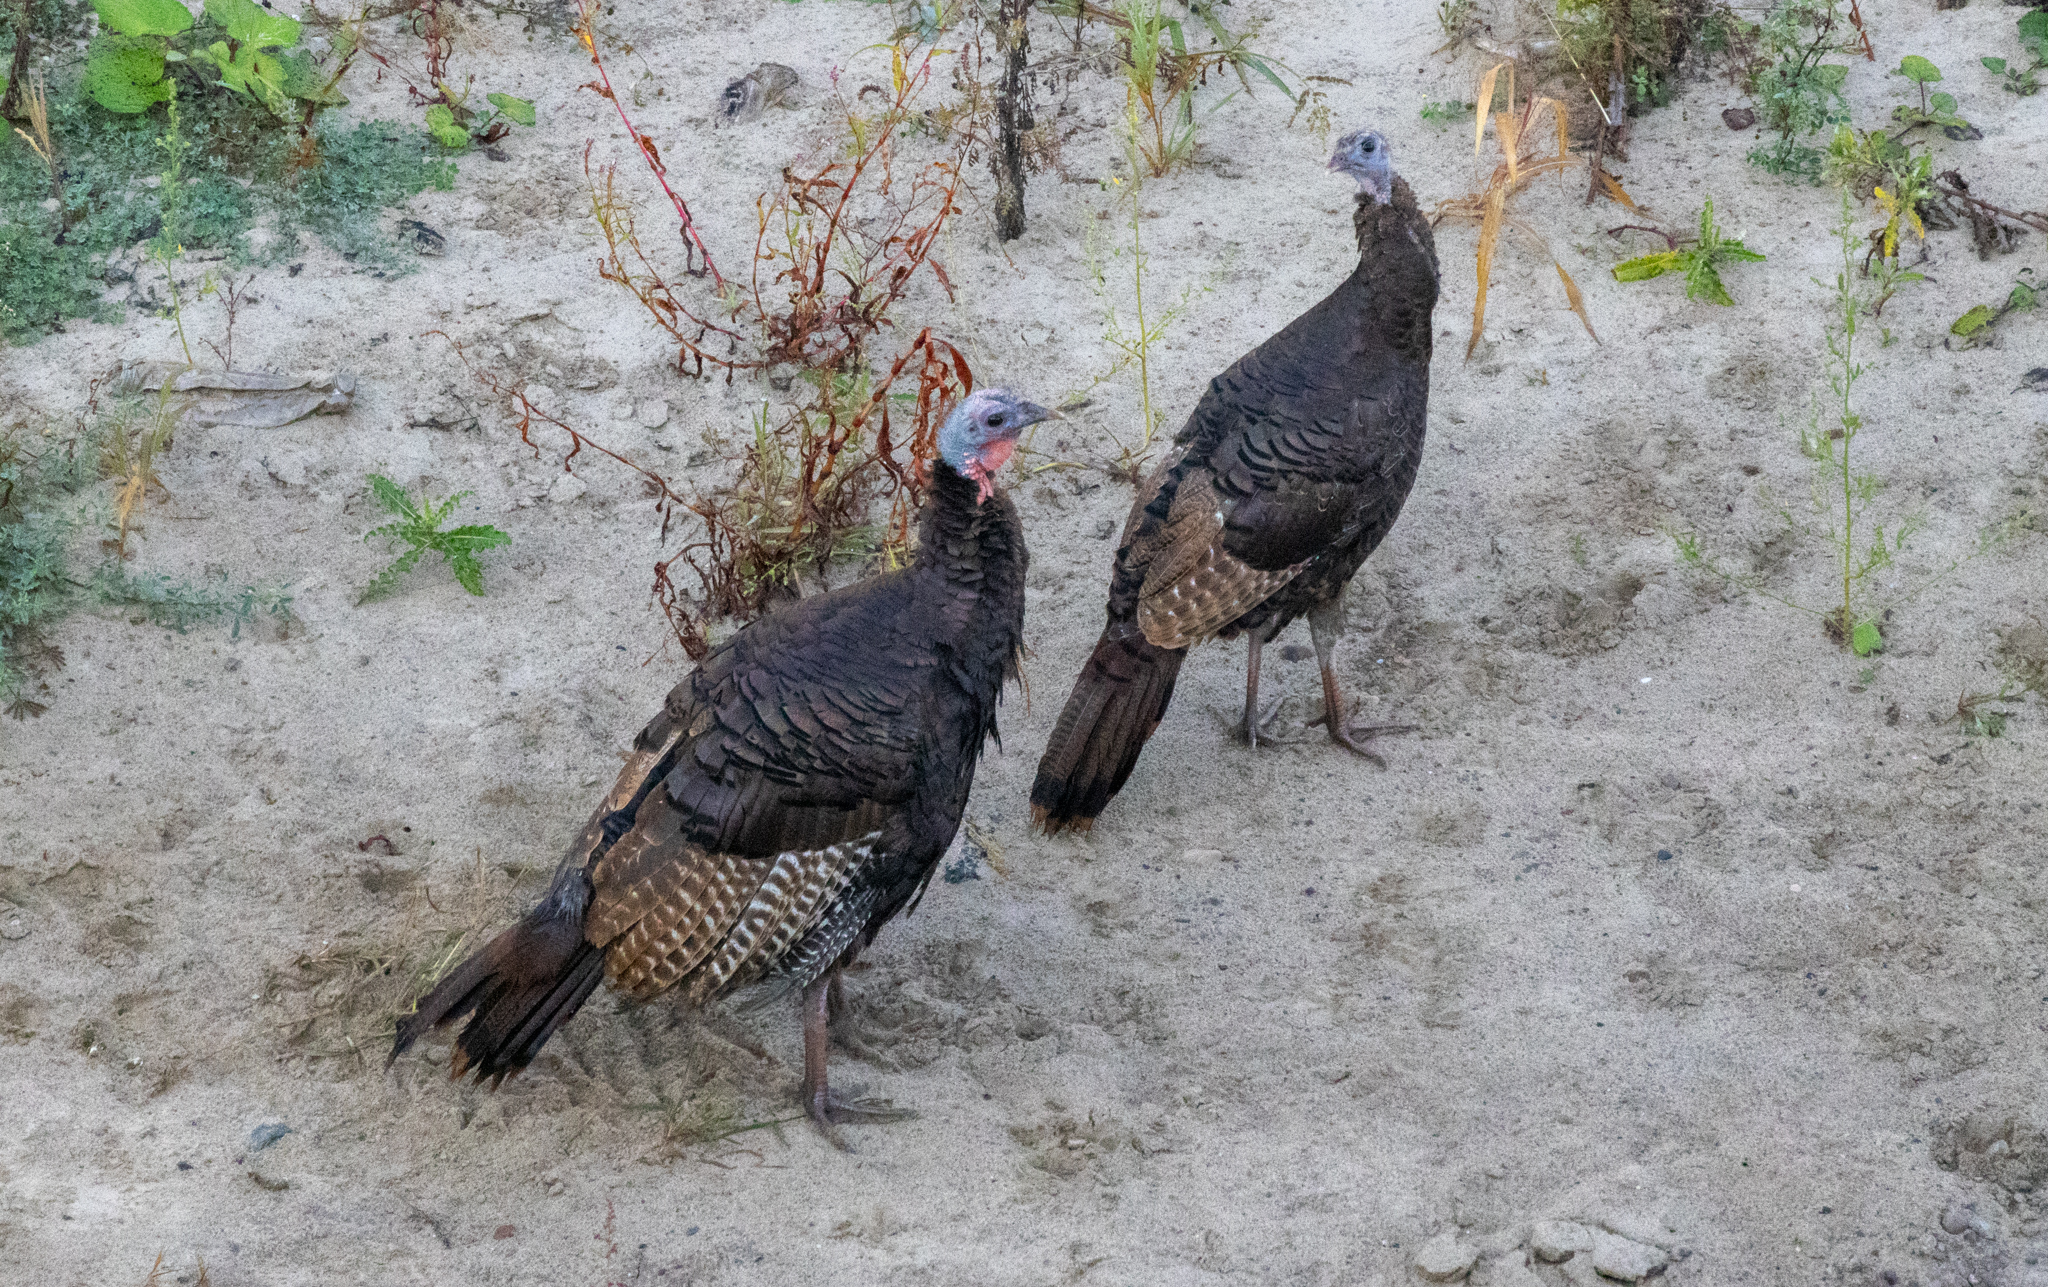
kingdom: Animalia
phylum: Chordata
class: Aves
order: Galliformes
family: Phasianidae
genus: Meleagris
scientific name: Meleagris gallopavo
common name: Wild turkey
